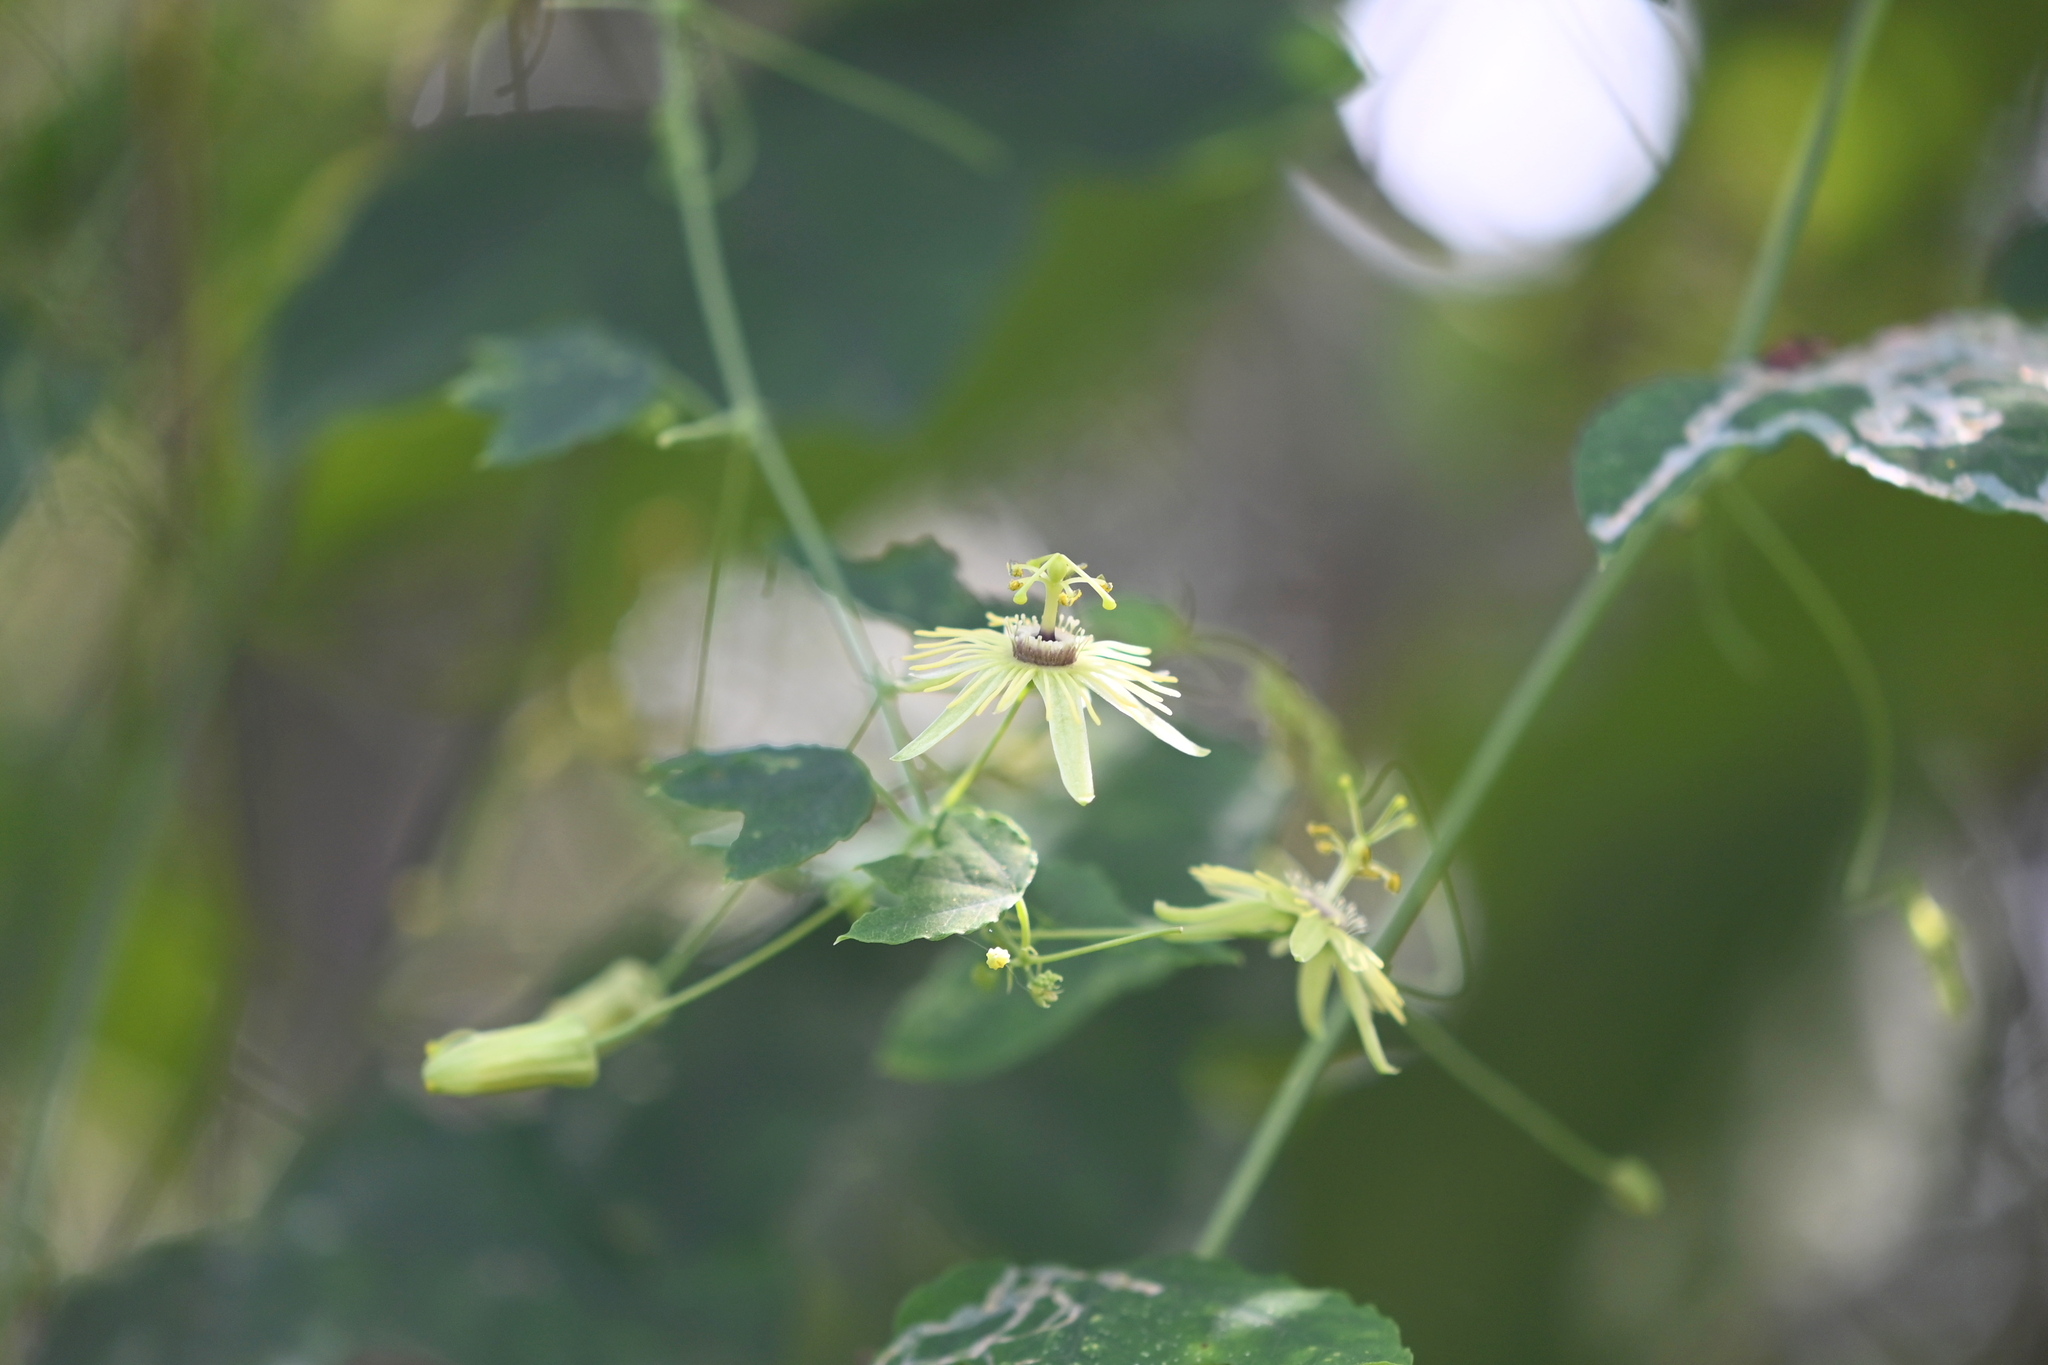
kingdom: Plantae
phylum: Tracheophyta
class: Magnoliopsida
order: Malpighiales
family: Passifloraceae
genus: Passiflora
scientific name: Passiflora lutea
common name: Yellow passionflower
